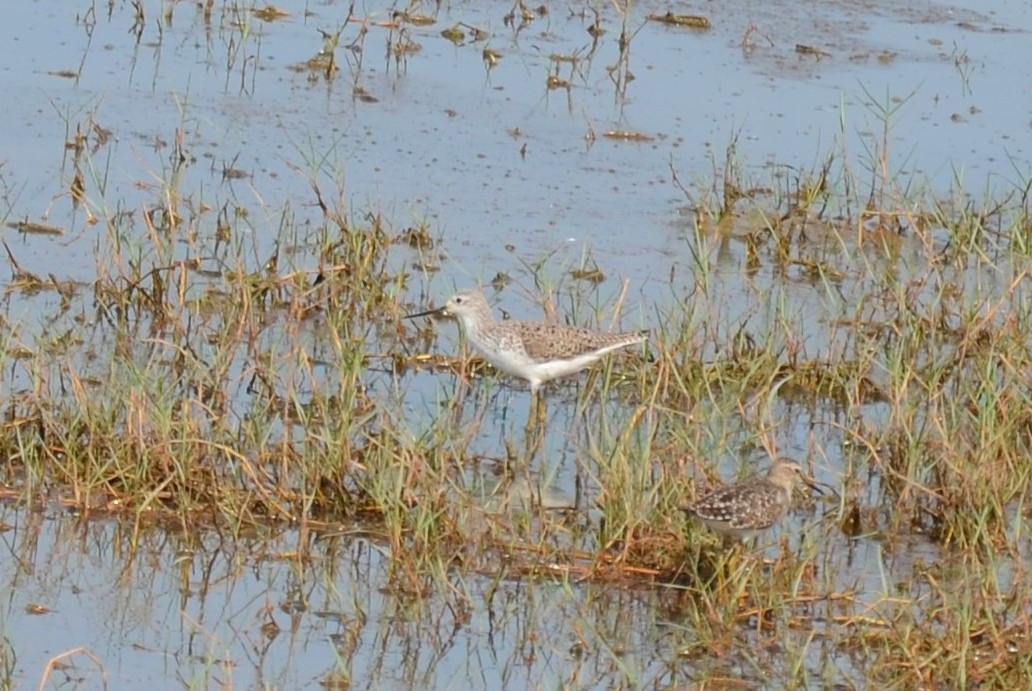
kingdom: Animalia
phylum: Chordata
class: Aves
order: Charadriiformes
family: Scolopacidae
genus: Tringa
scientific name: Tringa stagnatilis
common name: Marsh sandpiper
